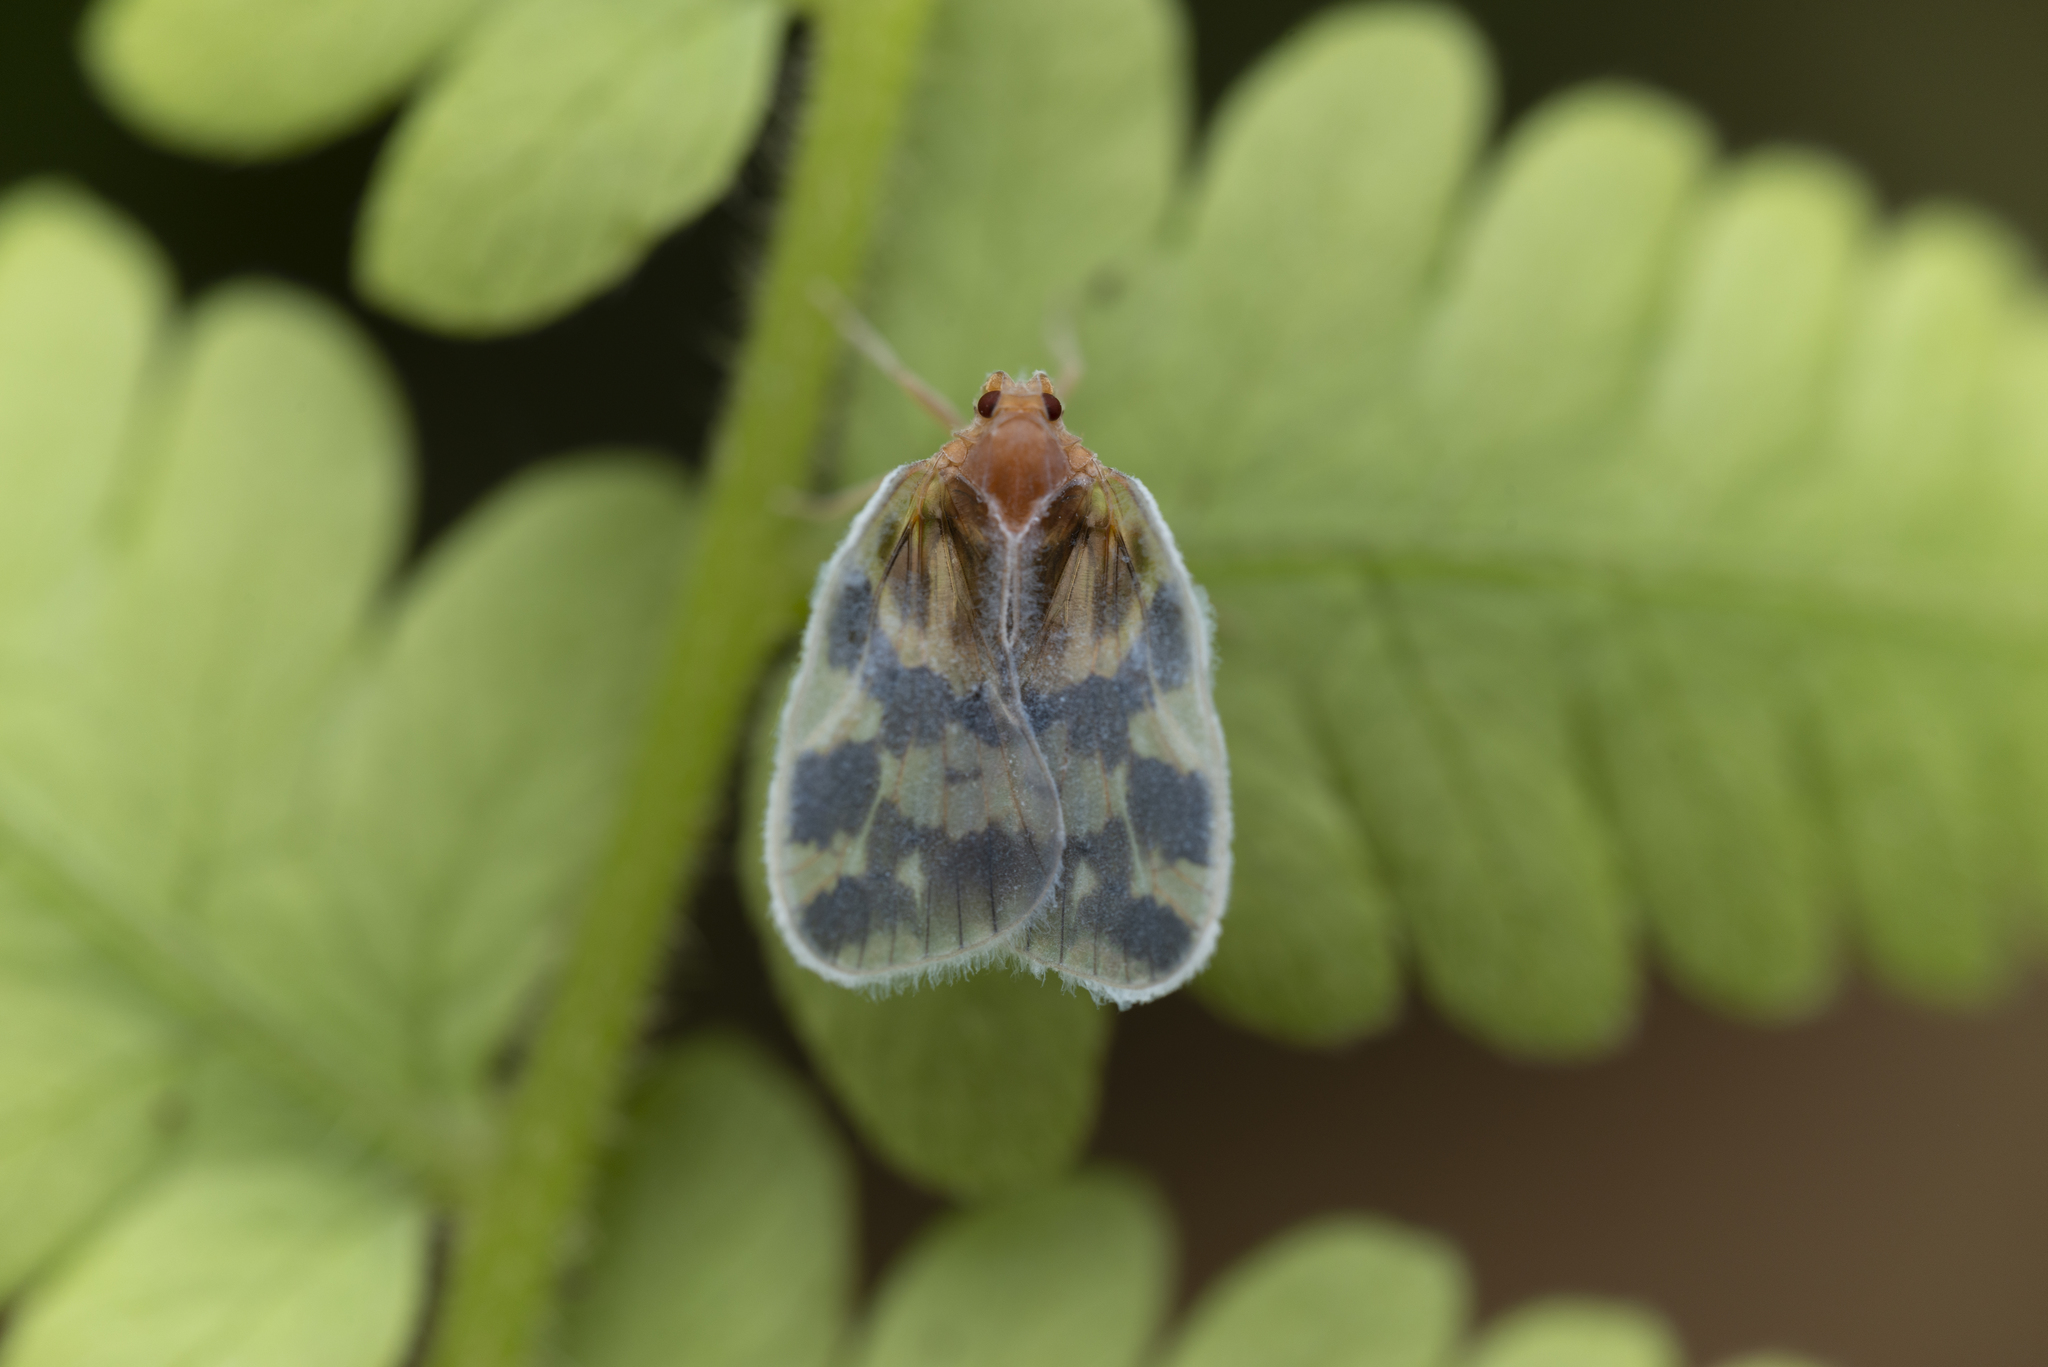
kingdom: Animalia
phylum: Arthropoda
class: Insecta
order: Hemiptera
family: Cixiidae
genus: Borysthenes
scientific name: Borysthenes emarginatus
